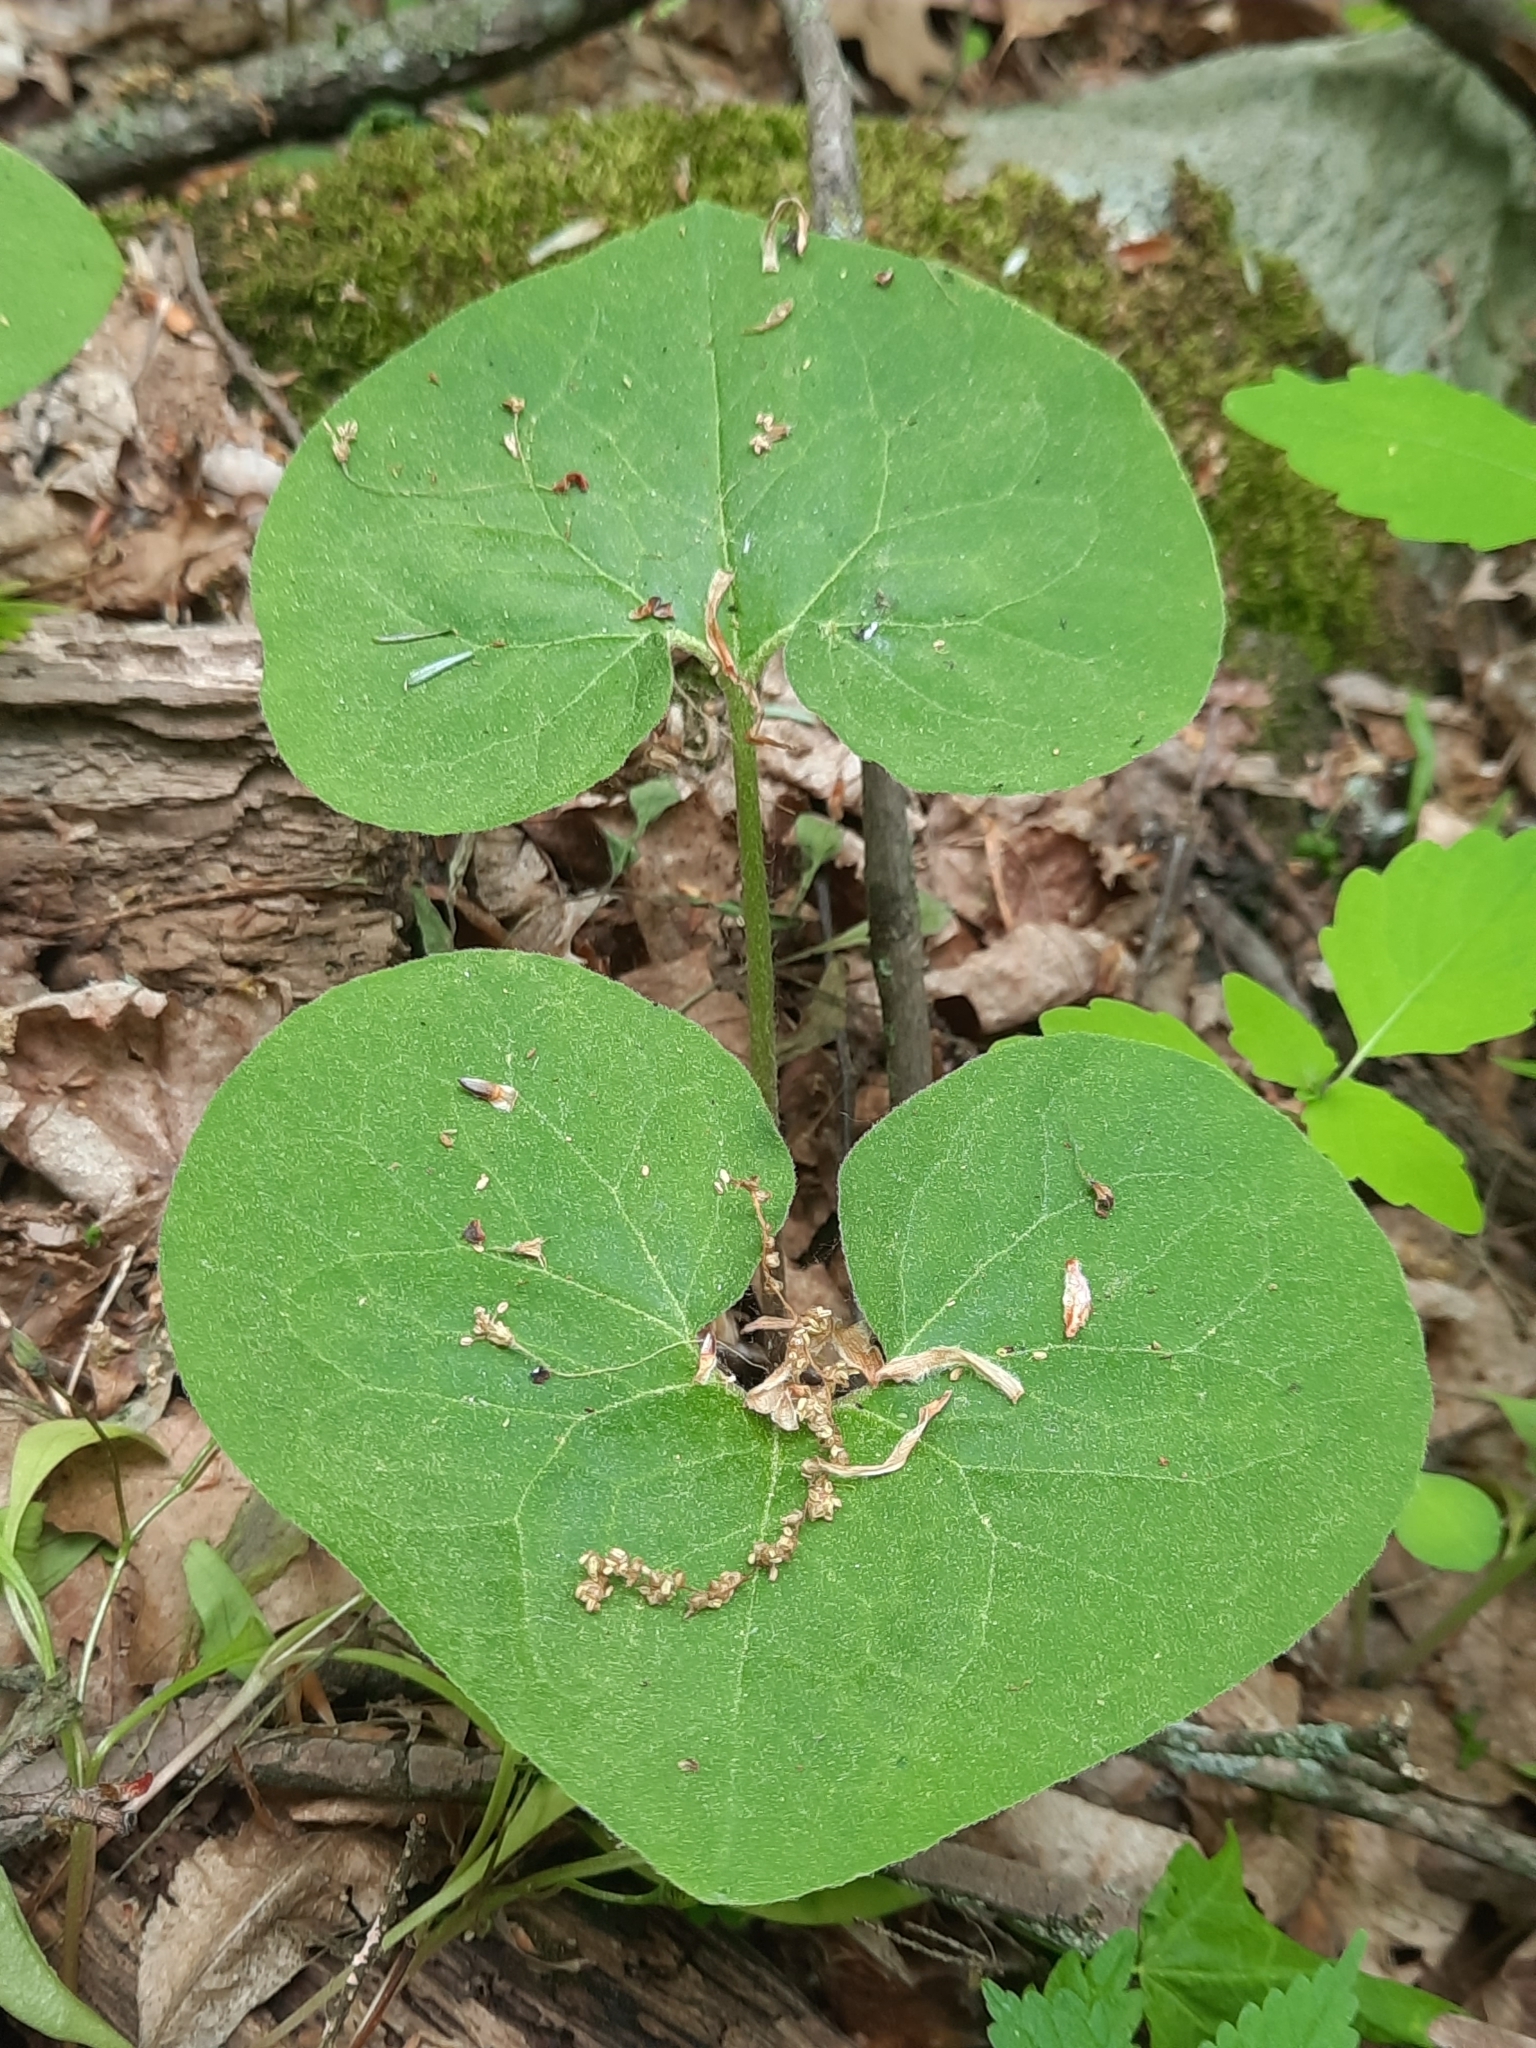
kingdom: Plantae
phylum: Tracheophyta
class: Magnoliopsida
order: Piperales
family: Aristolochiaceae
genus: Asarum
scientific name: Asarum canadense
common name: Wild ginger
